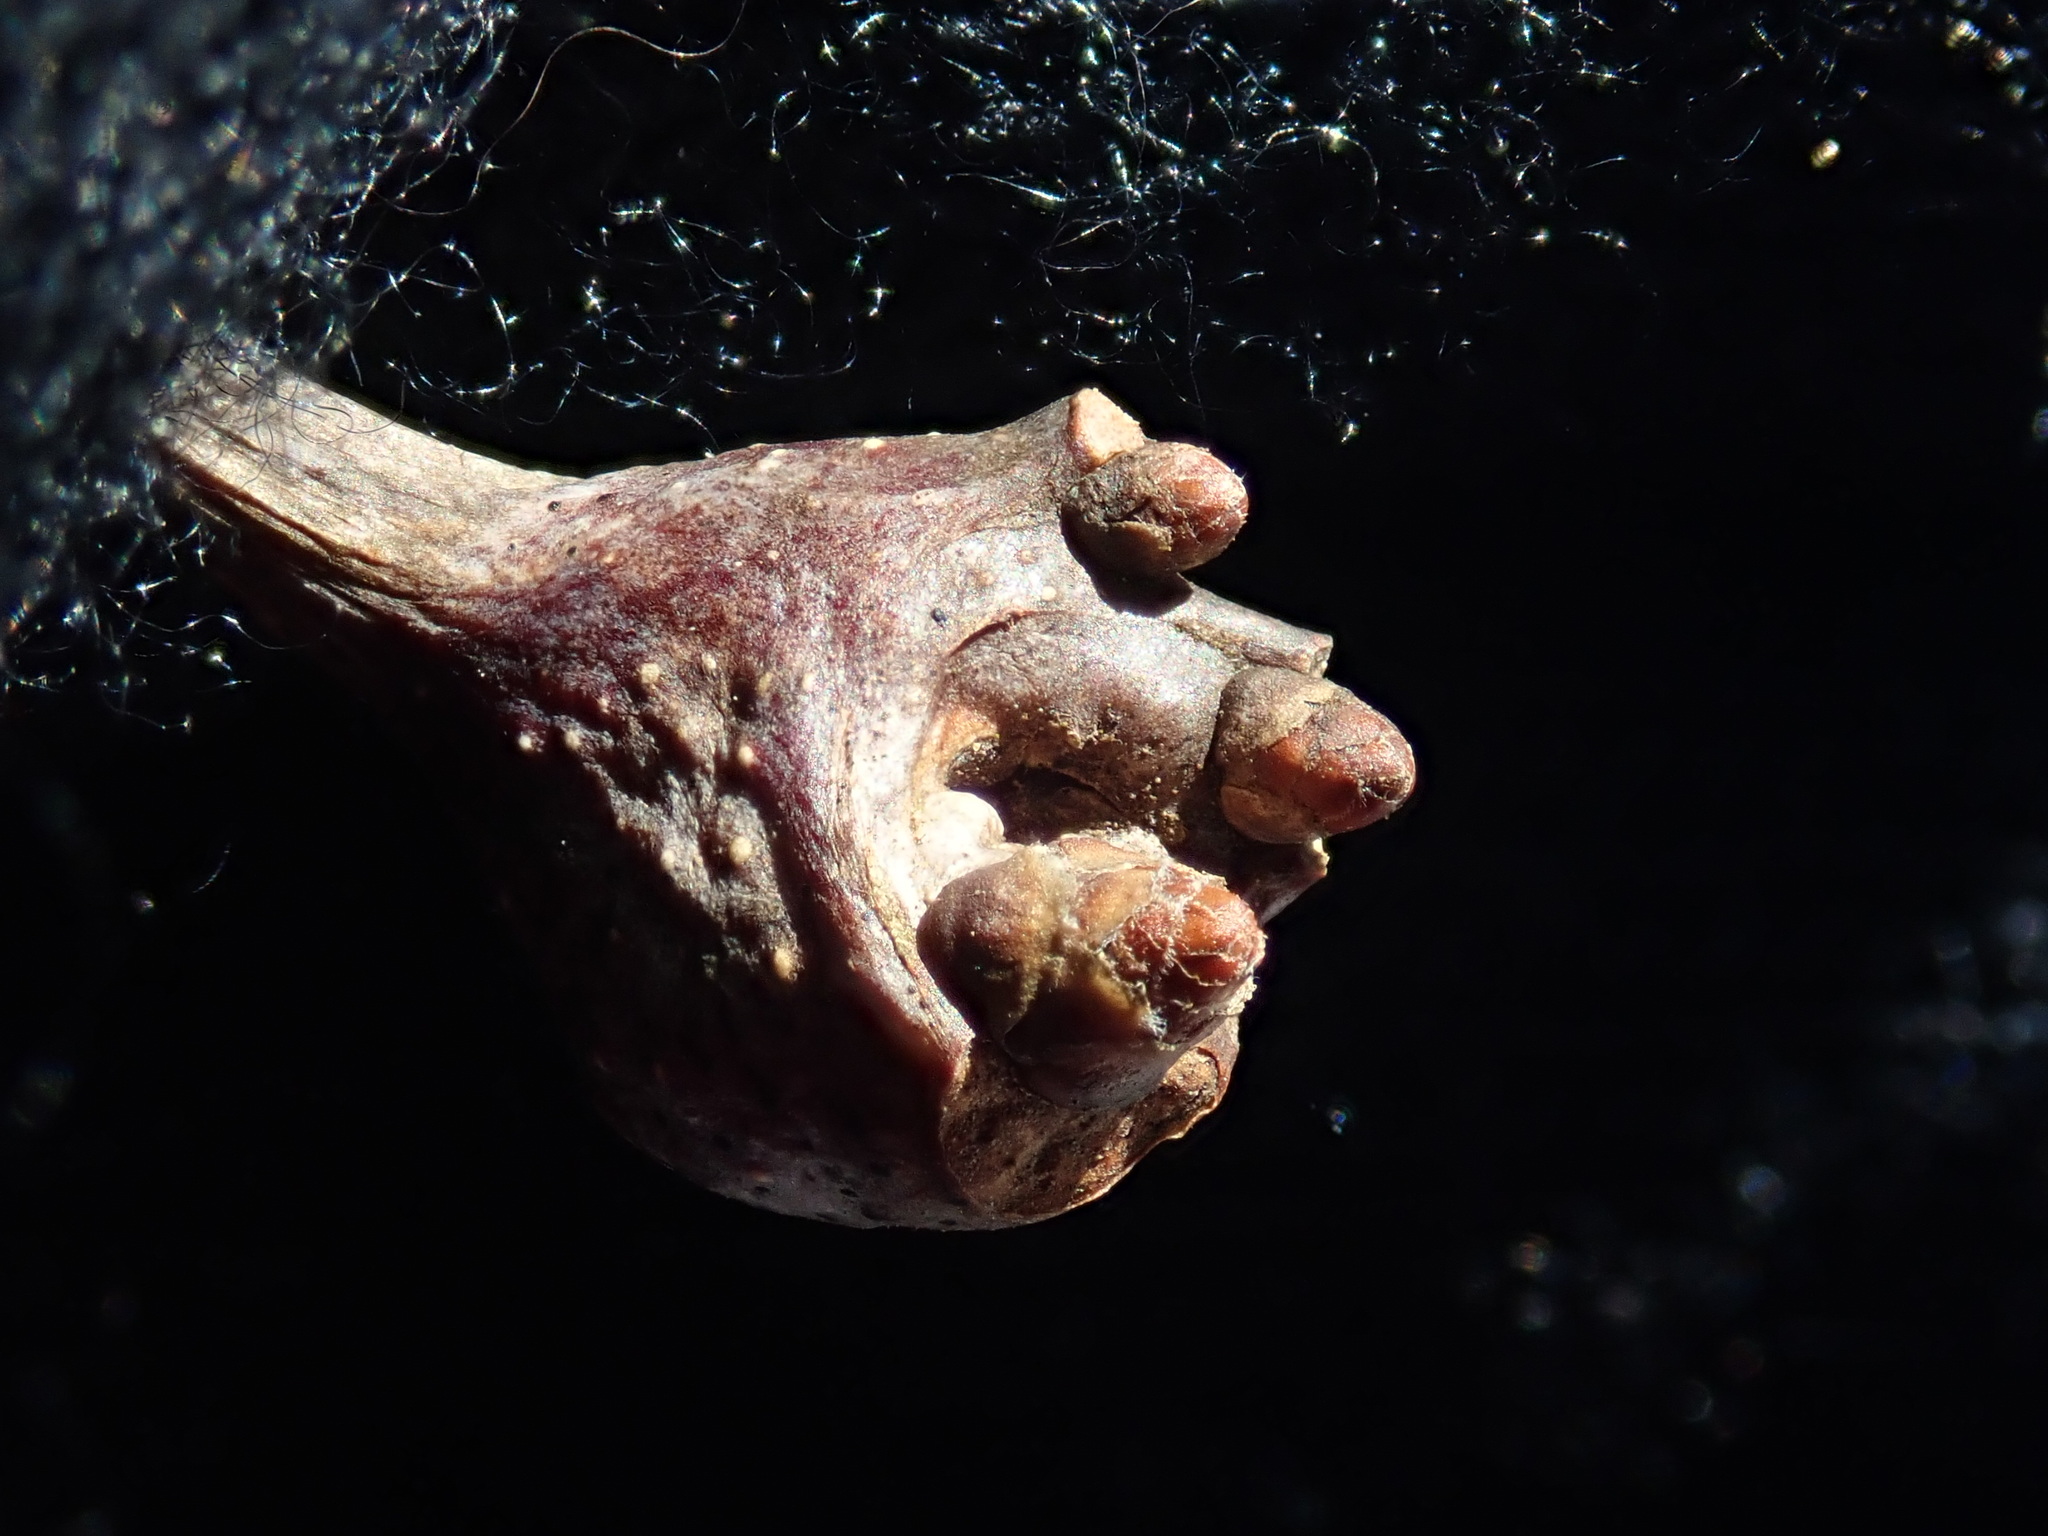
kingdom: Animalia
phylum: Arthropoda
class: Insecta
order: Hymenoptera
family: Cynipidae
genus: Callirhytis
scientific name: Callirhytis clavula
